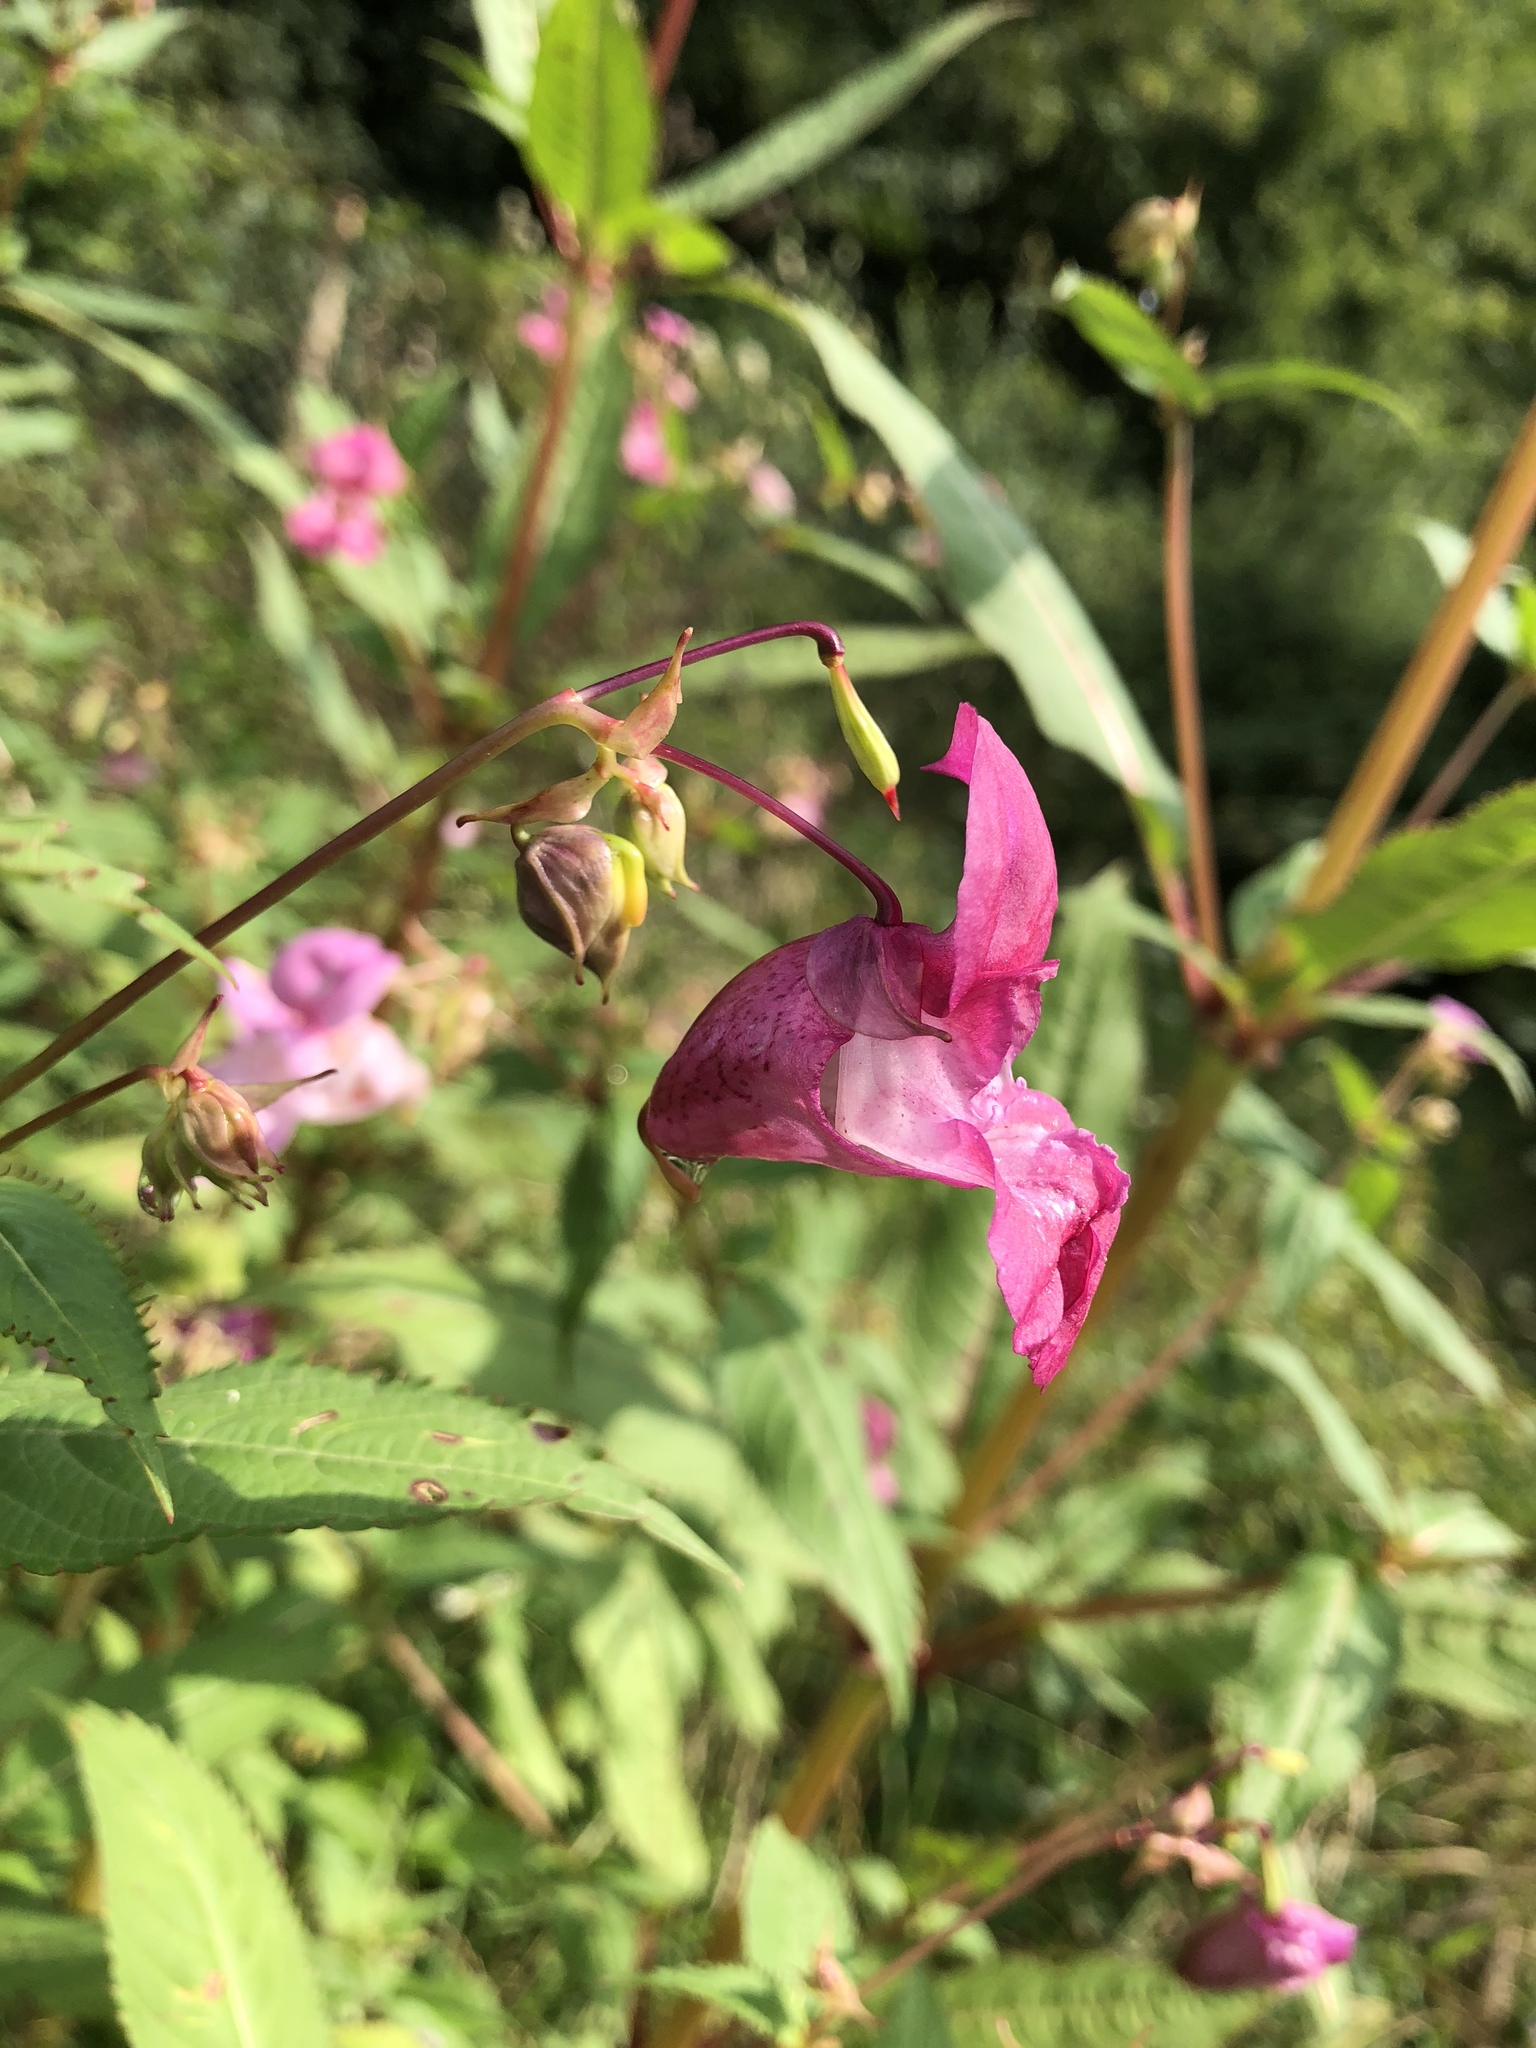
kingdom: Plantae
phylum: Tracheophyta
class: Magnoliopsida
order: Ericales
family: Balsaminaceae
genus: Impatiens
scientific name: Impatiens glandulifera
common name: Himalayan balsam
